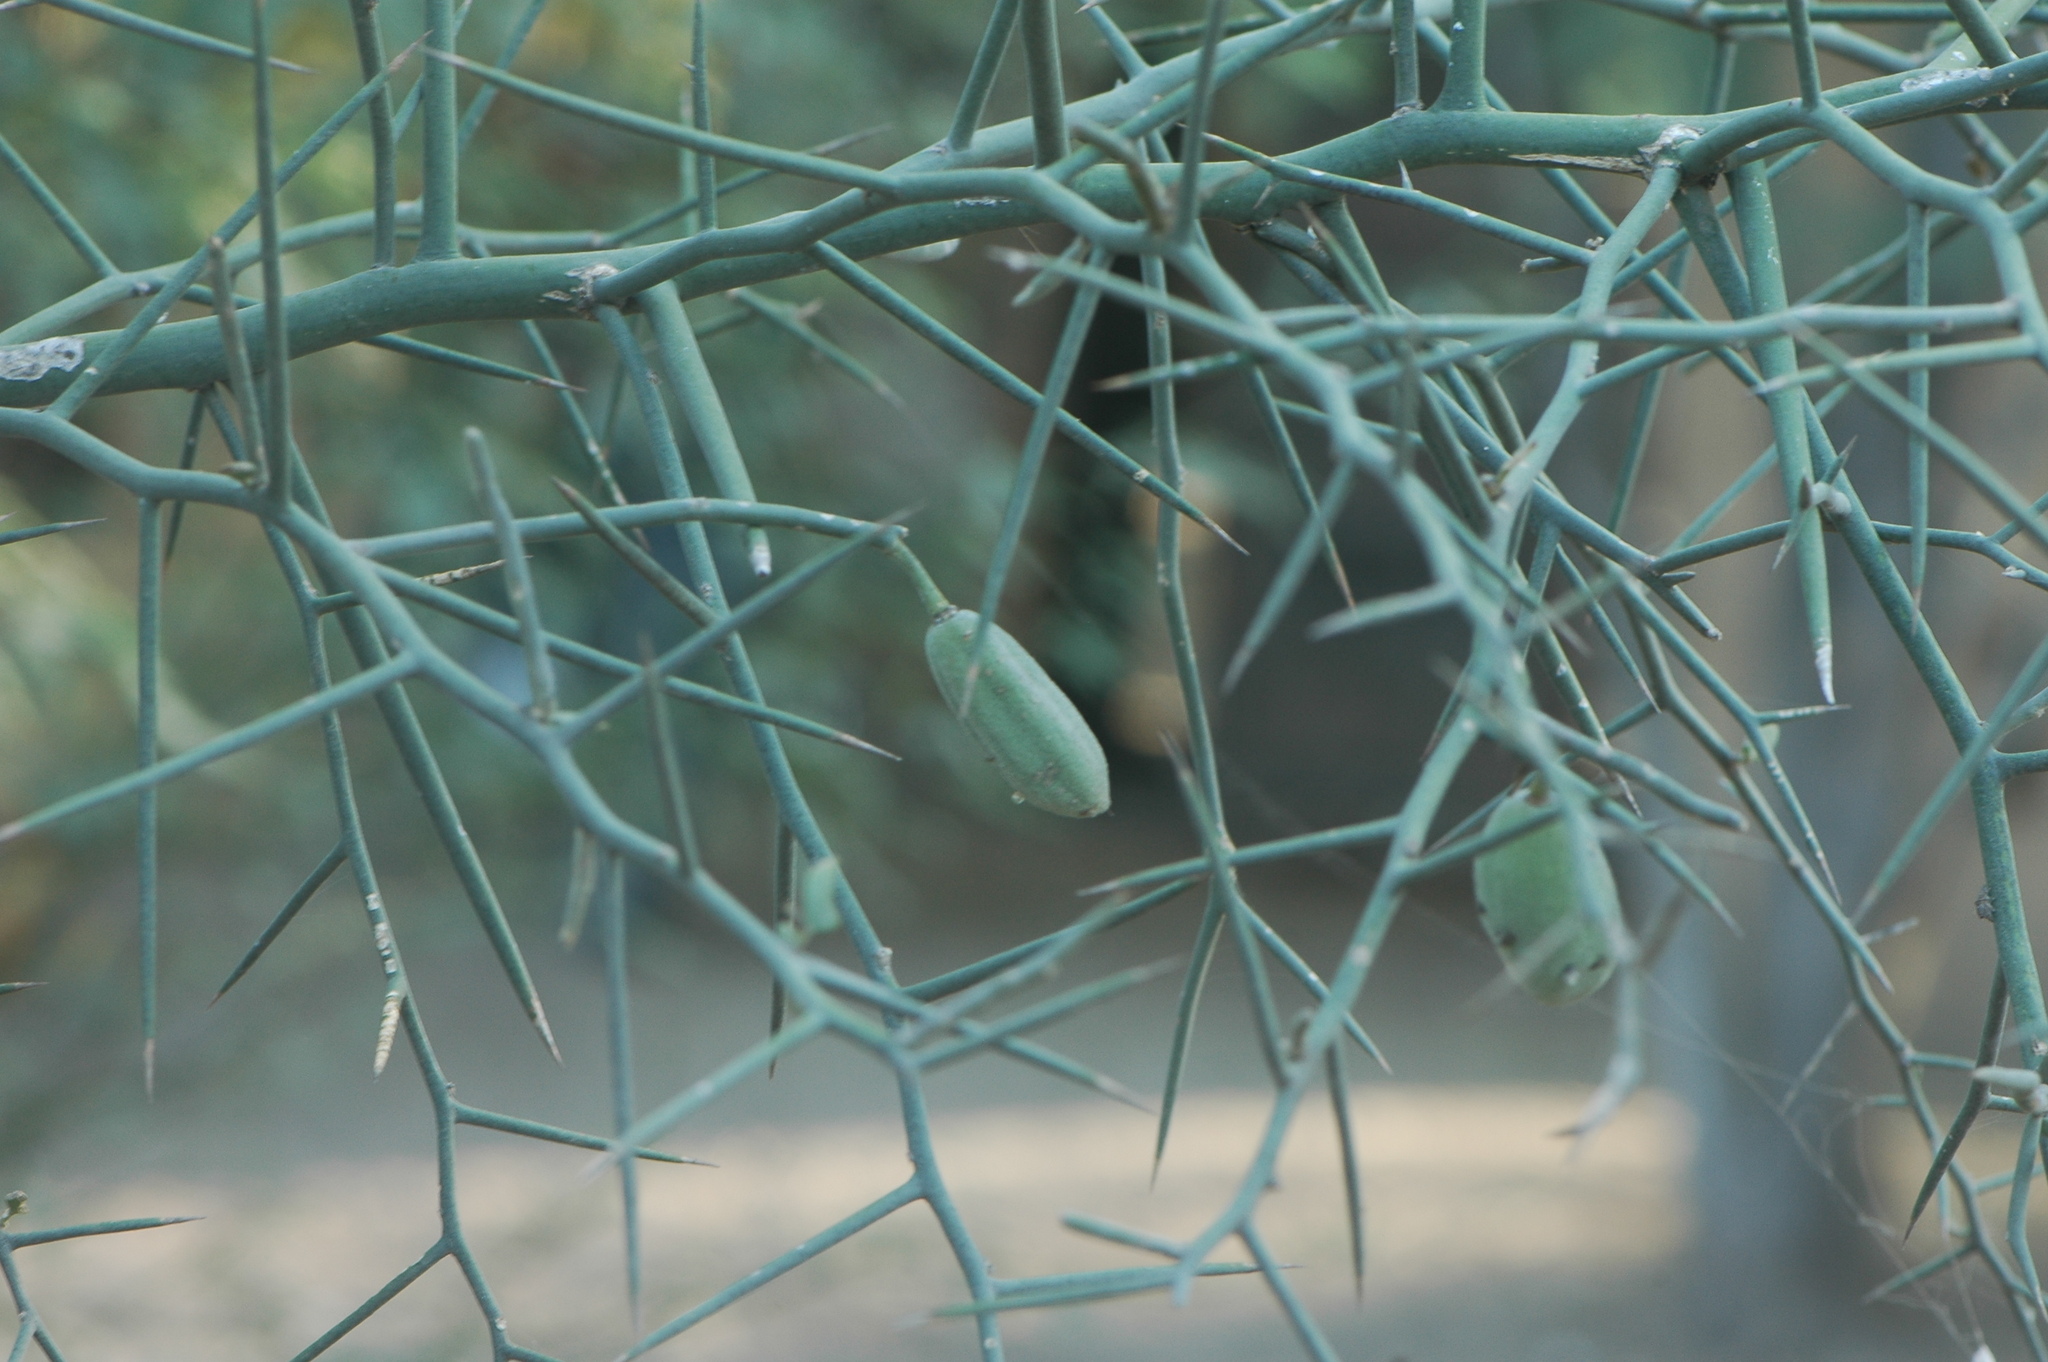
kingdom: Plantae
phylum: Tracheophyta
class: Magnoliopsida
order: Zygophyllales
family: Zygophyllaceae
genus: Balanites
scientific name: Balanites aegyptiaca
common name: Balanites
